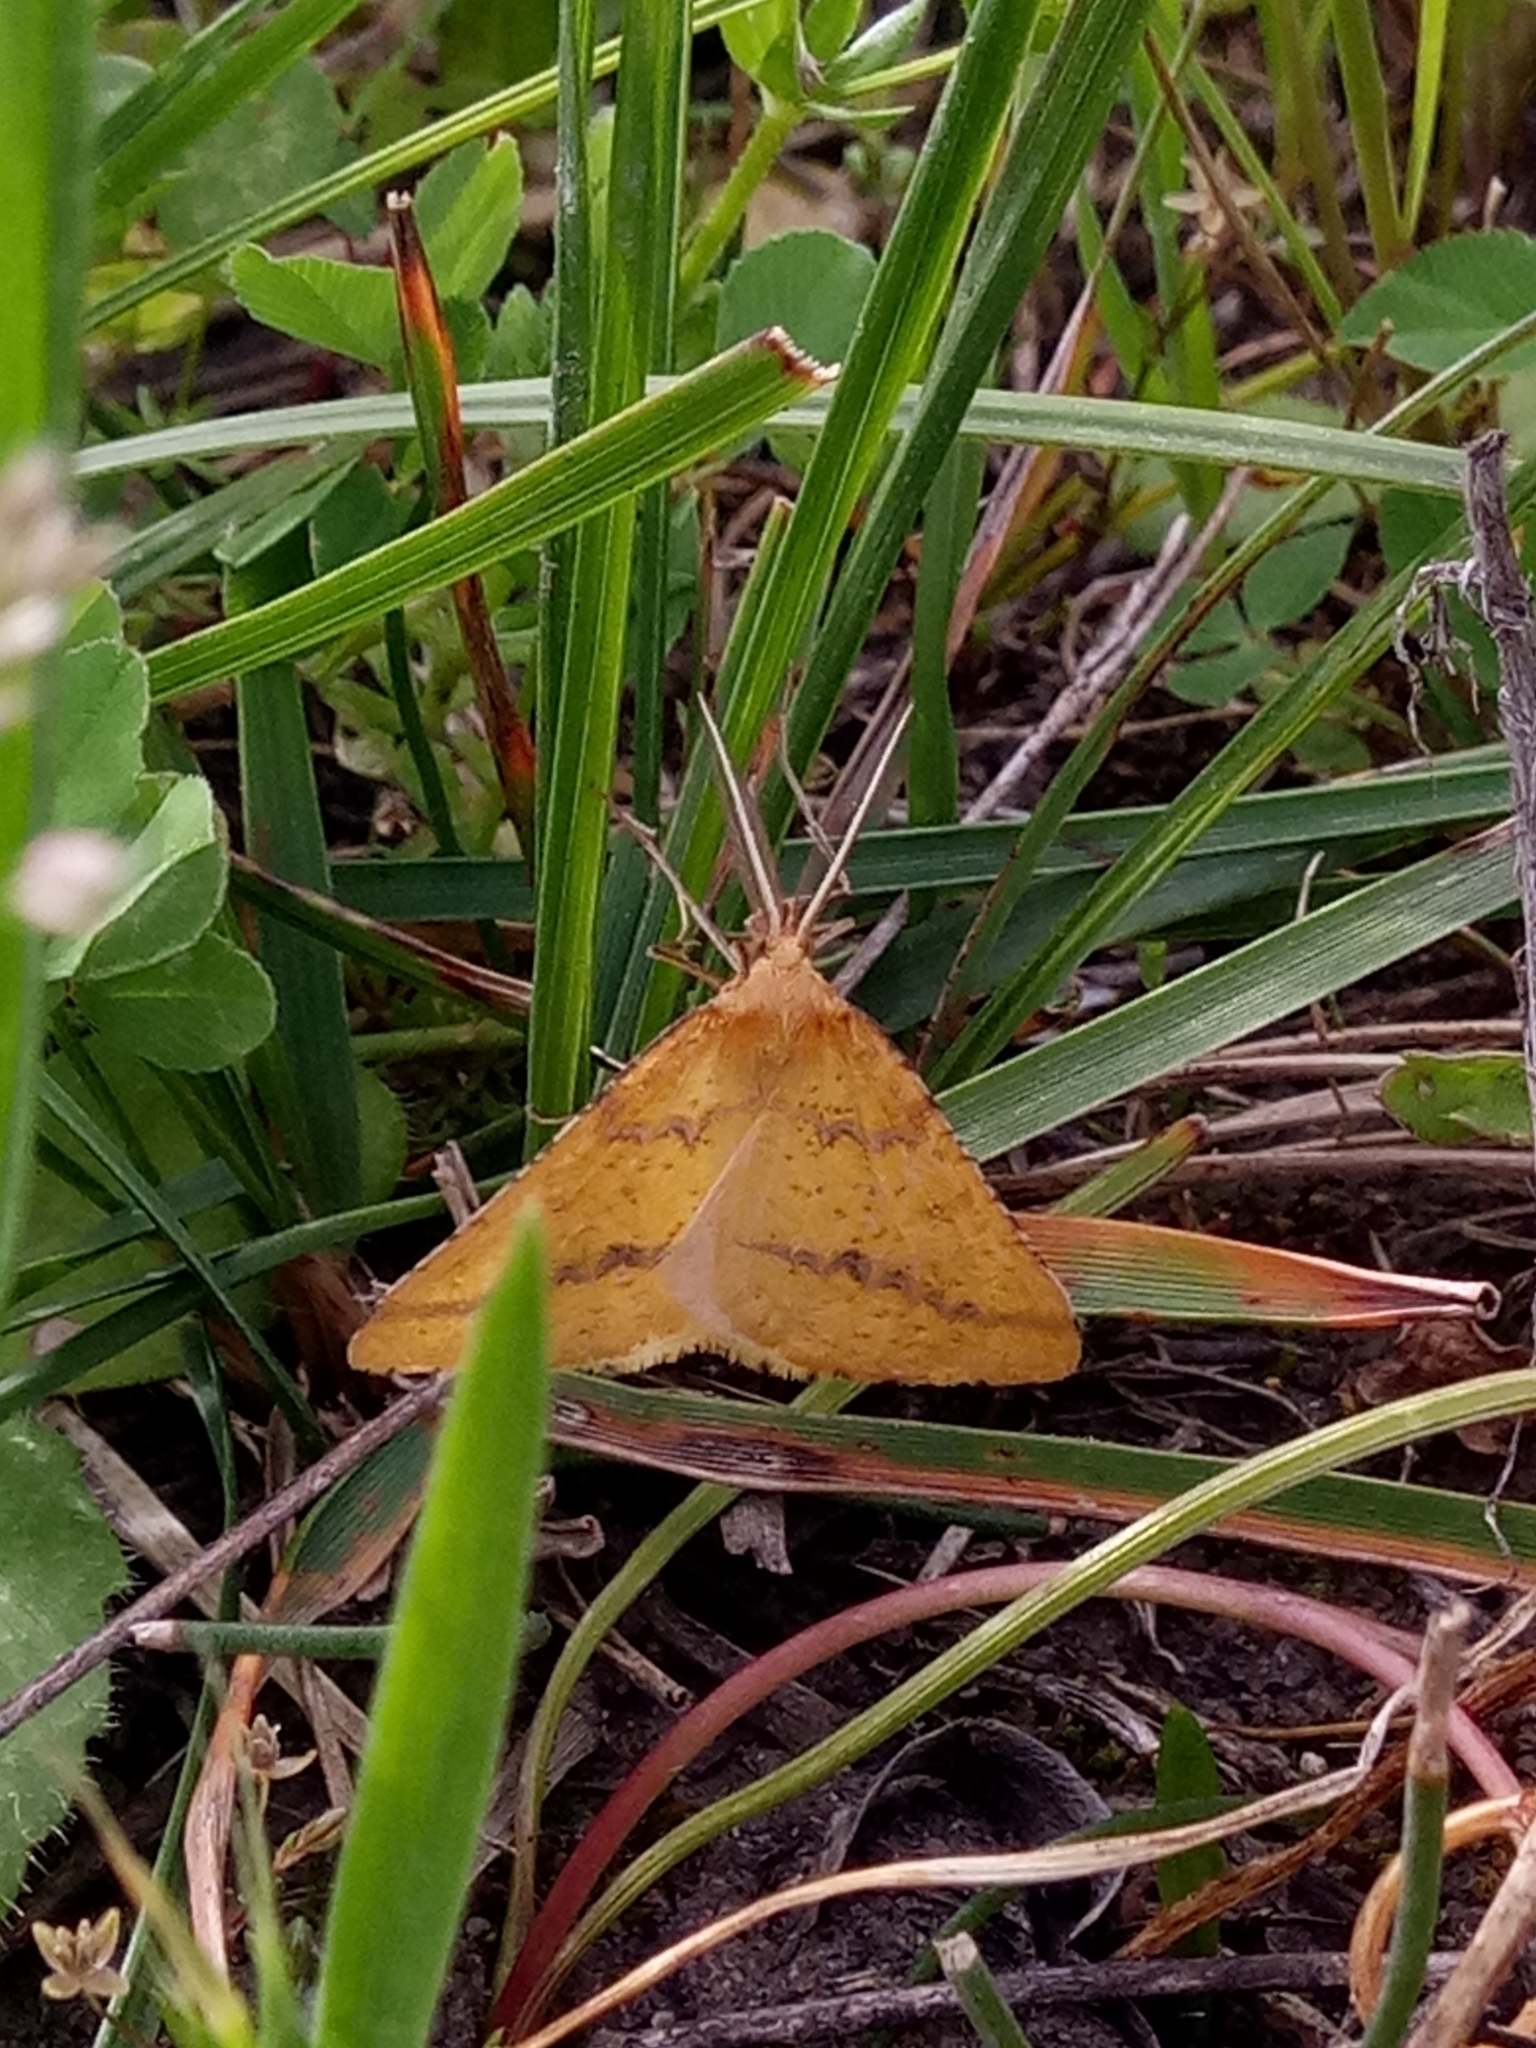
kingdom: Animalia
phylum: Arthropoda
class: Insecta
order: Lepidoptera
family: Geometridae
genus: Aspitates
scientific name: Aspitates ochrearia
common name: Yellow belle
